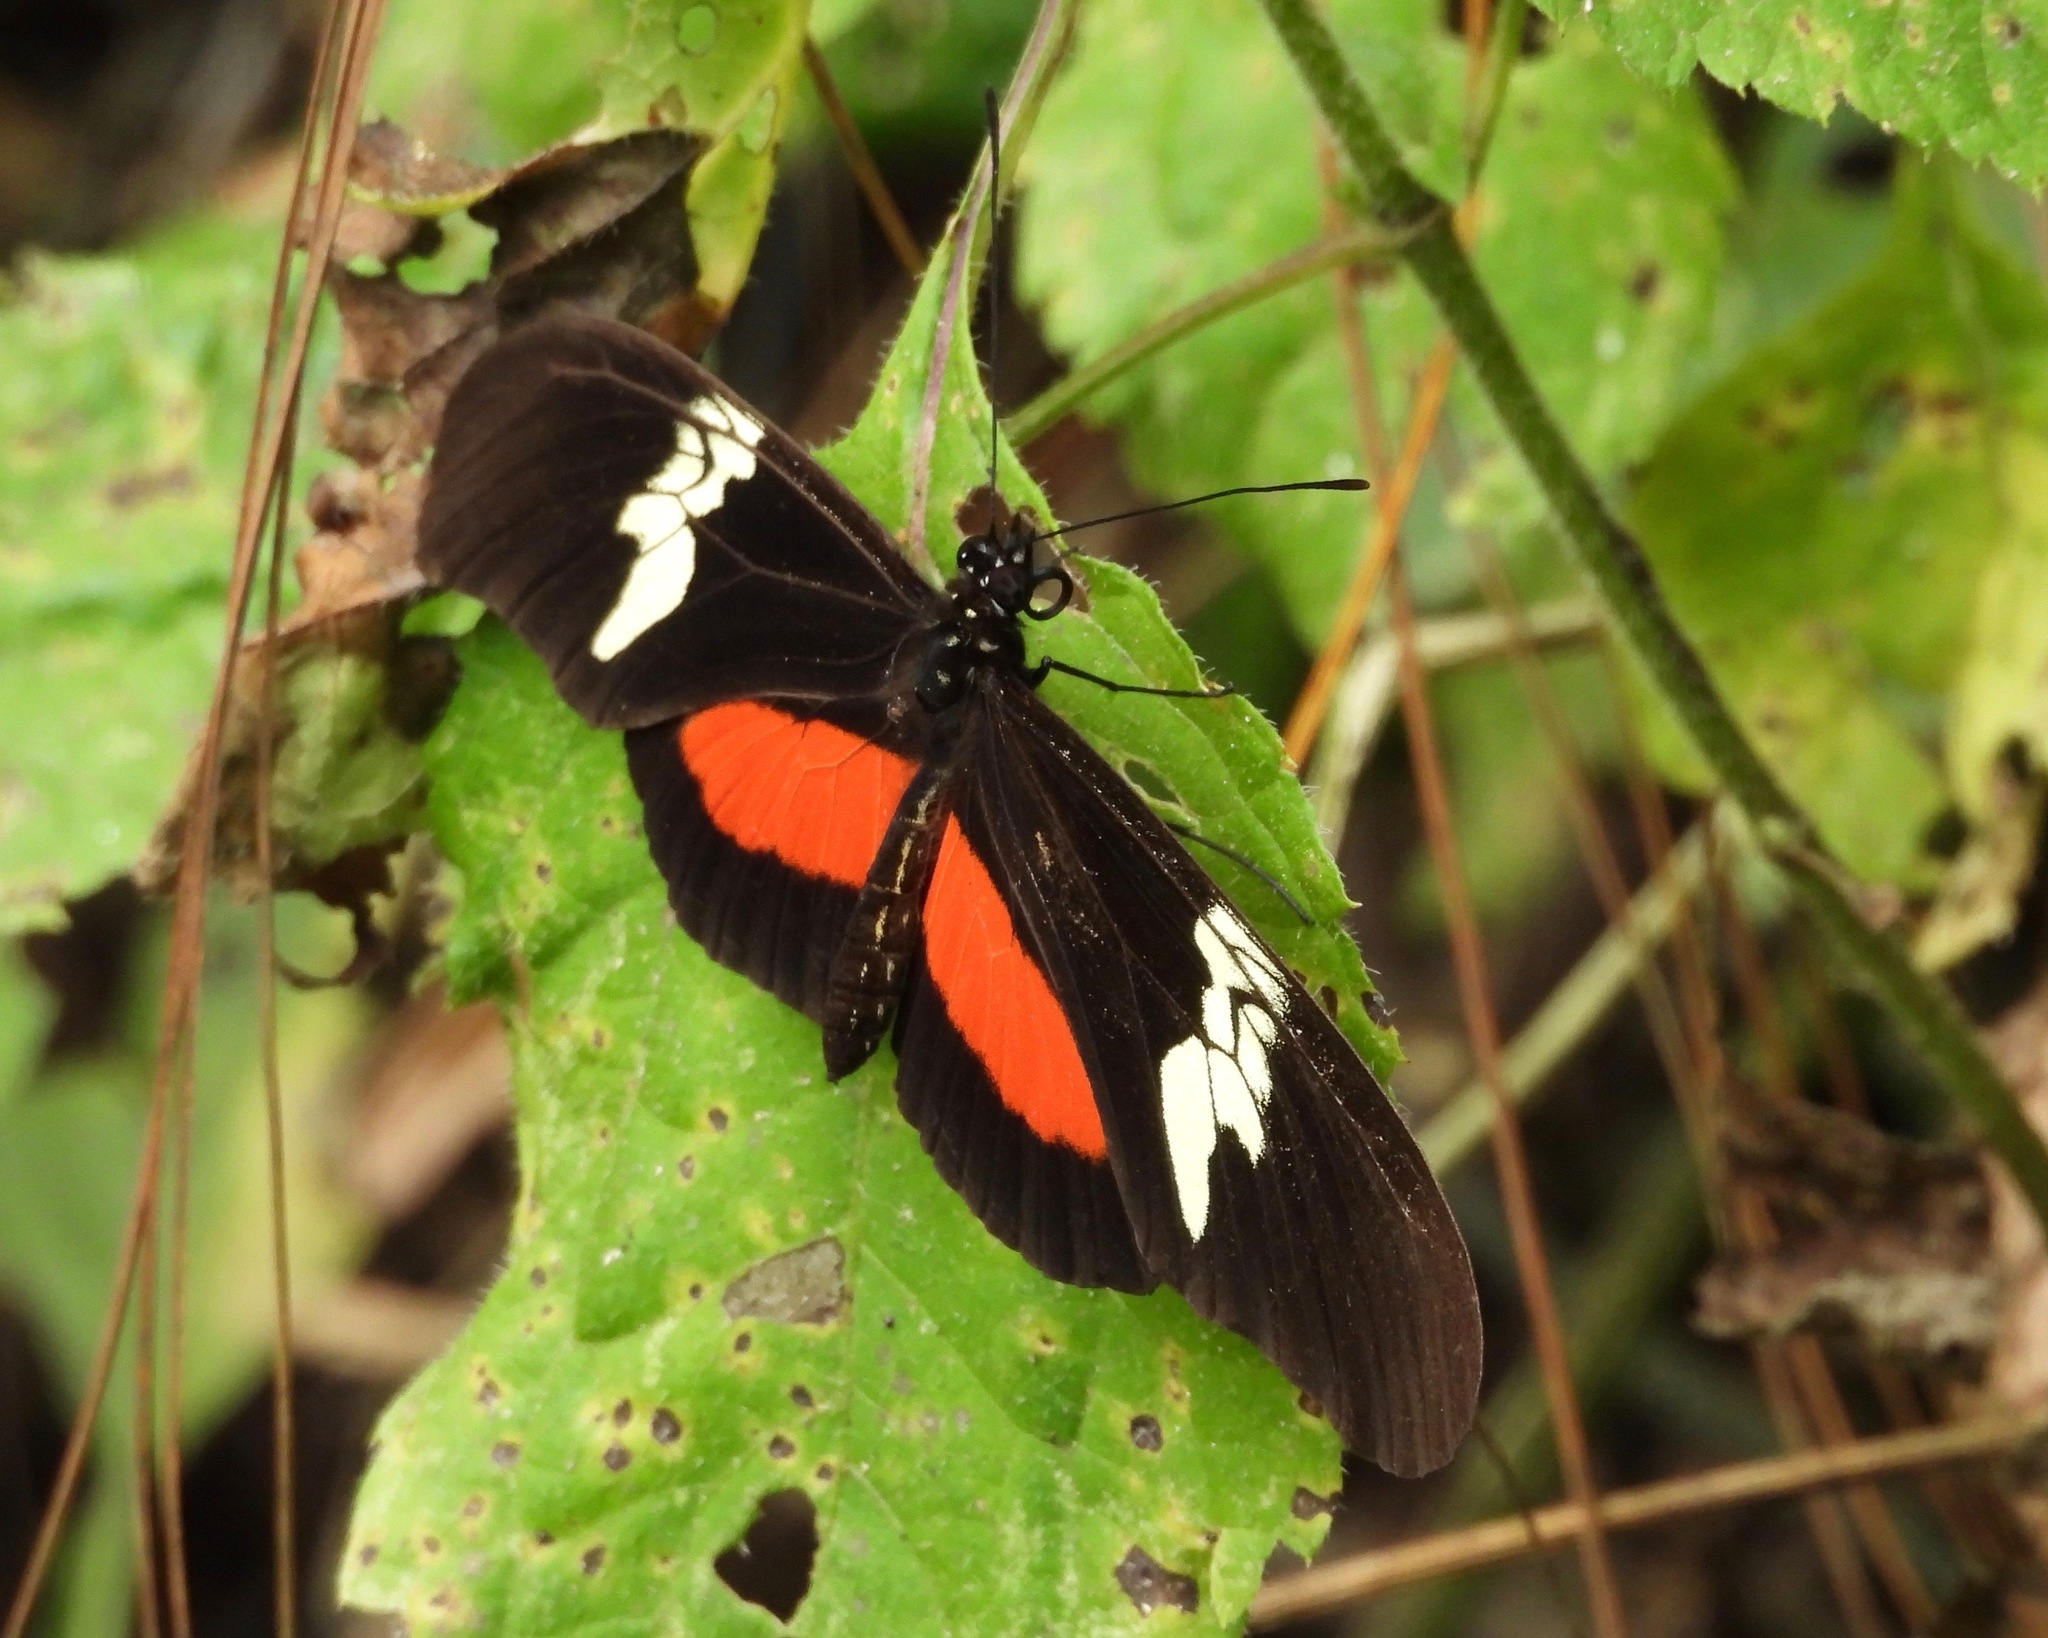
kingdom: Animalia
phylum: Arthropoda
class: Insecta
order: Lepidoptera
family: Nymphalidae
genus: Heliconius
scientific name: Heliconius hortense
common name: Mexican longwing
